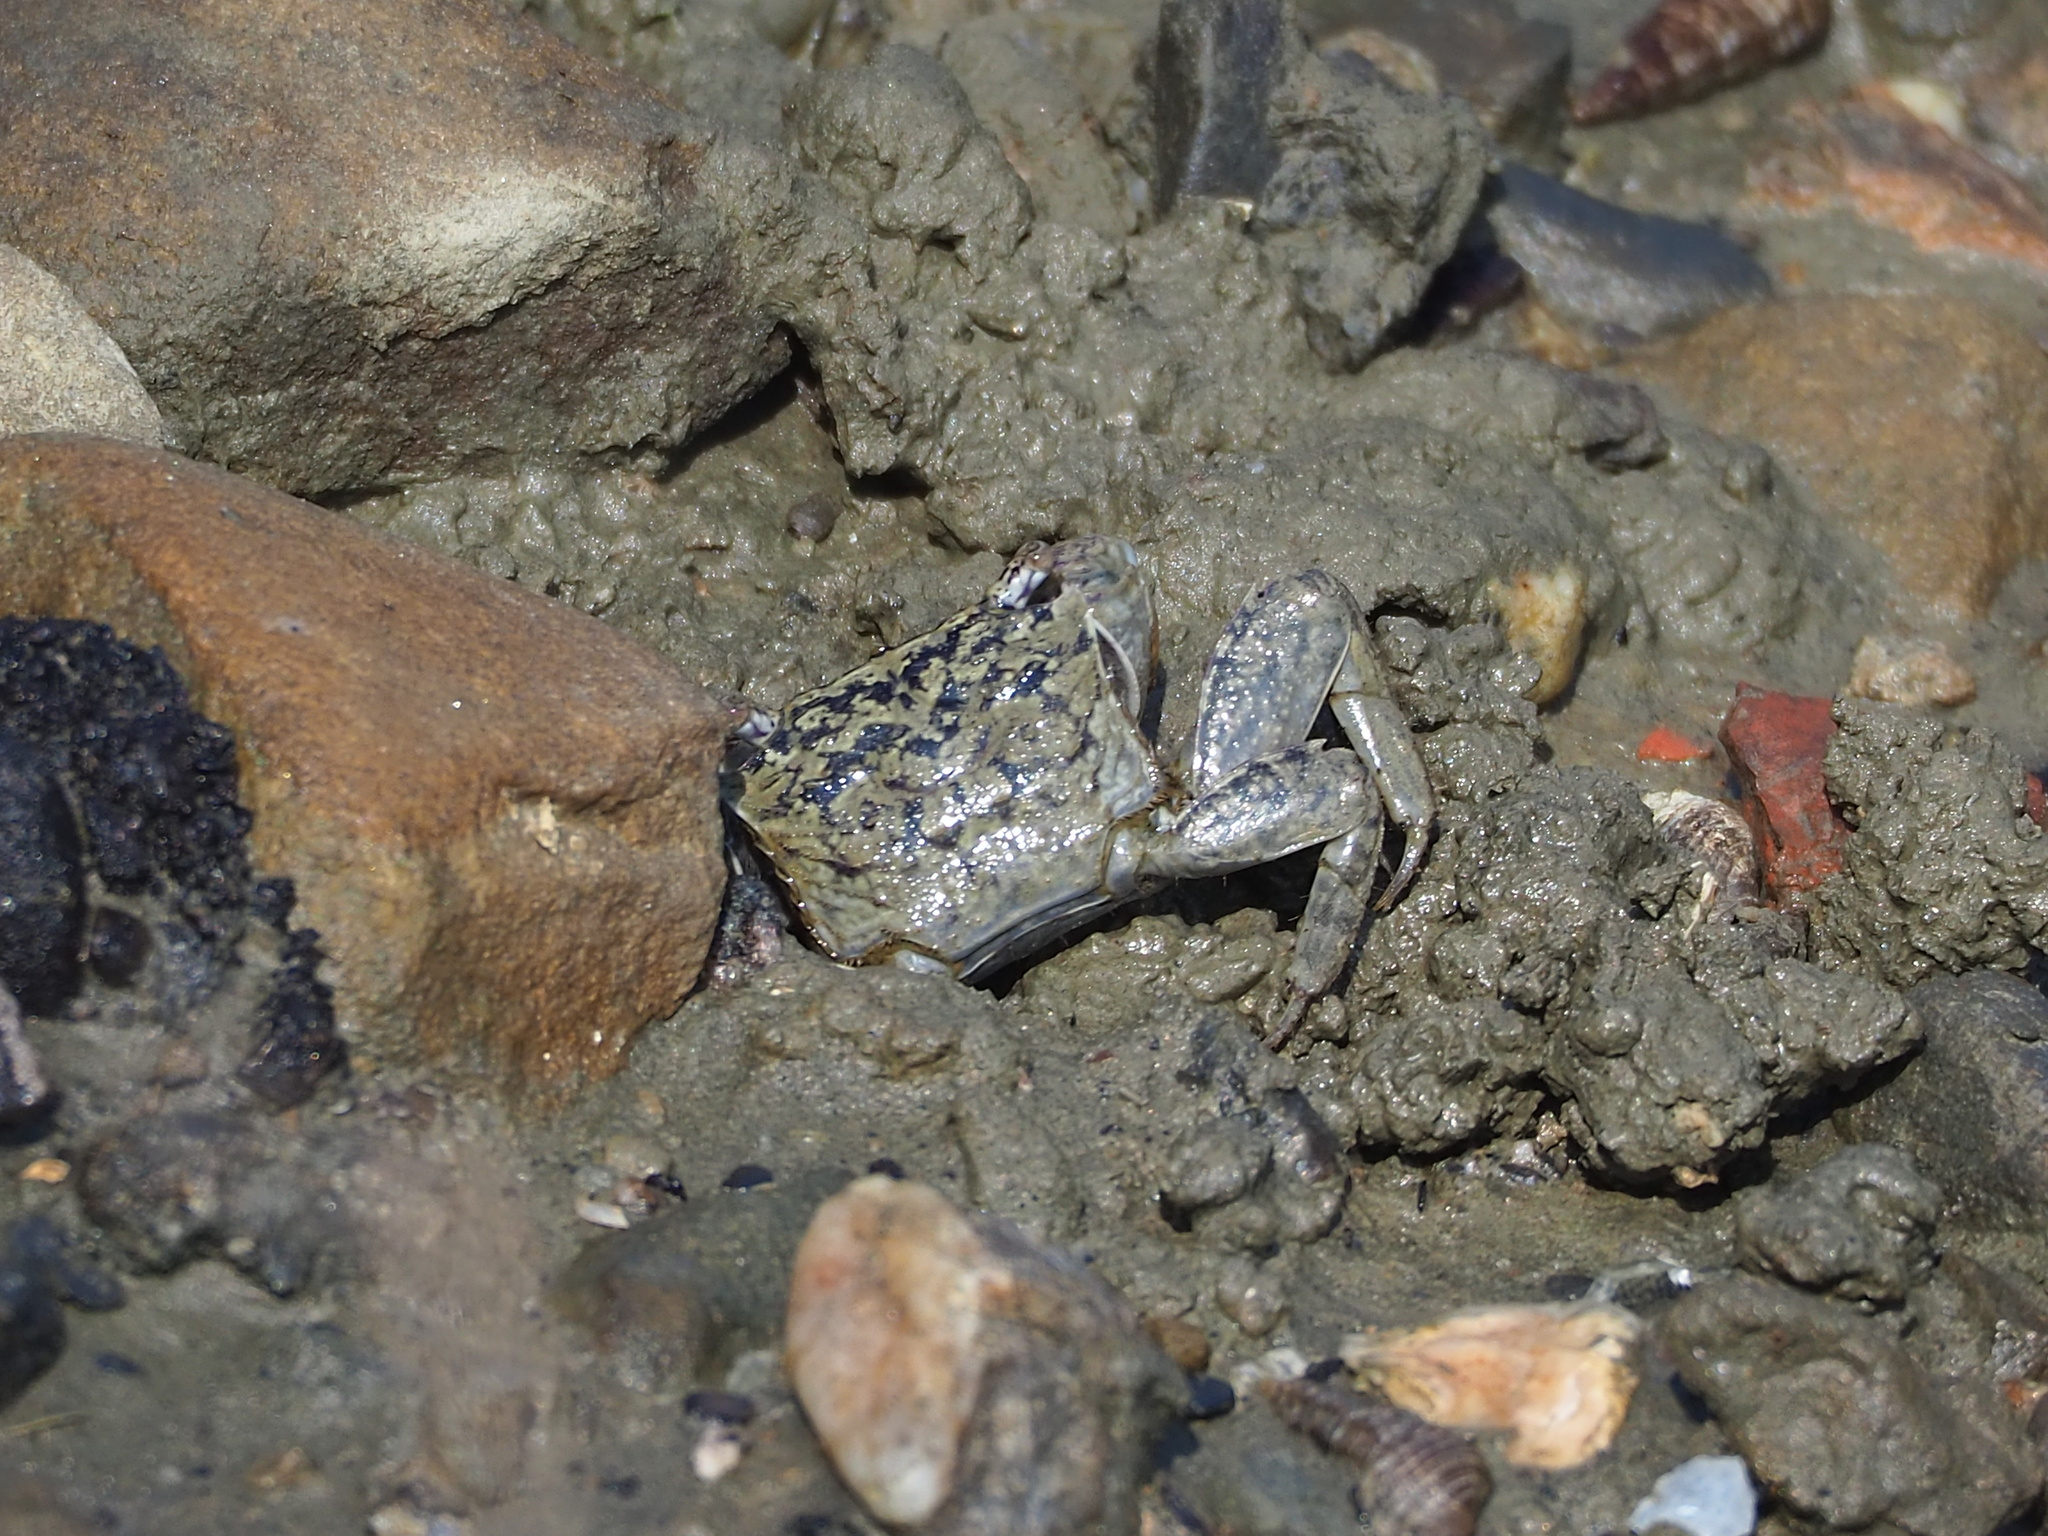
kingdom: Animalia
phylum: Arthropoda
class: Malacostraca
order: Decapoda
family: Sesarmidae
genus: Parasesarma
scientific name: Parasesarma affine
